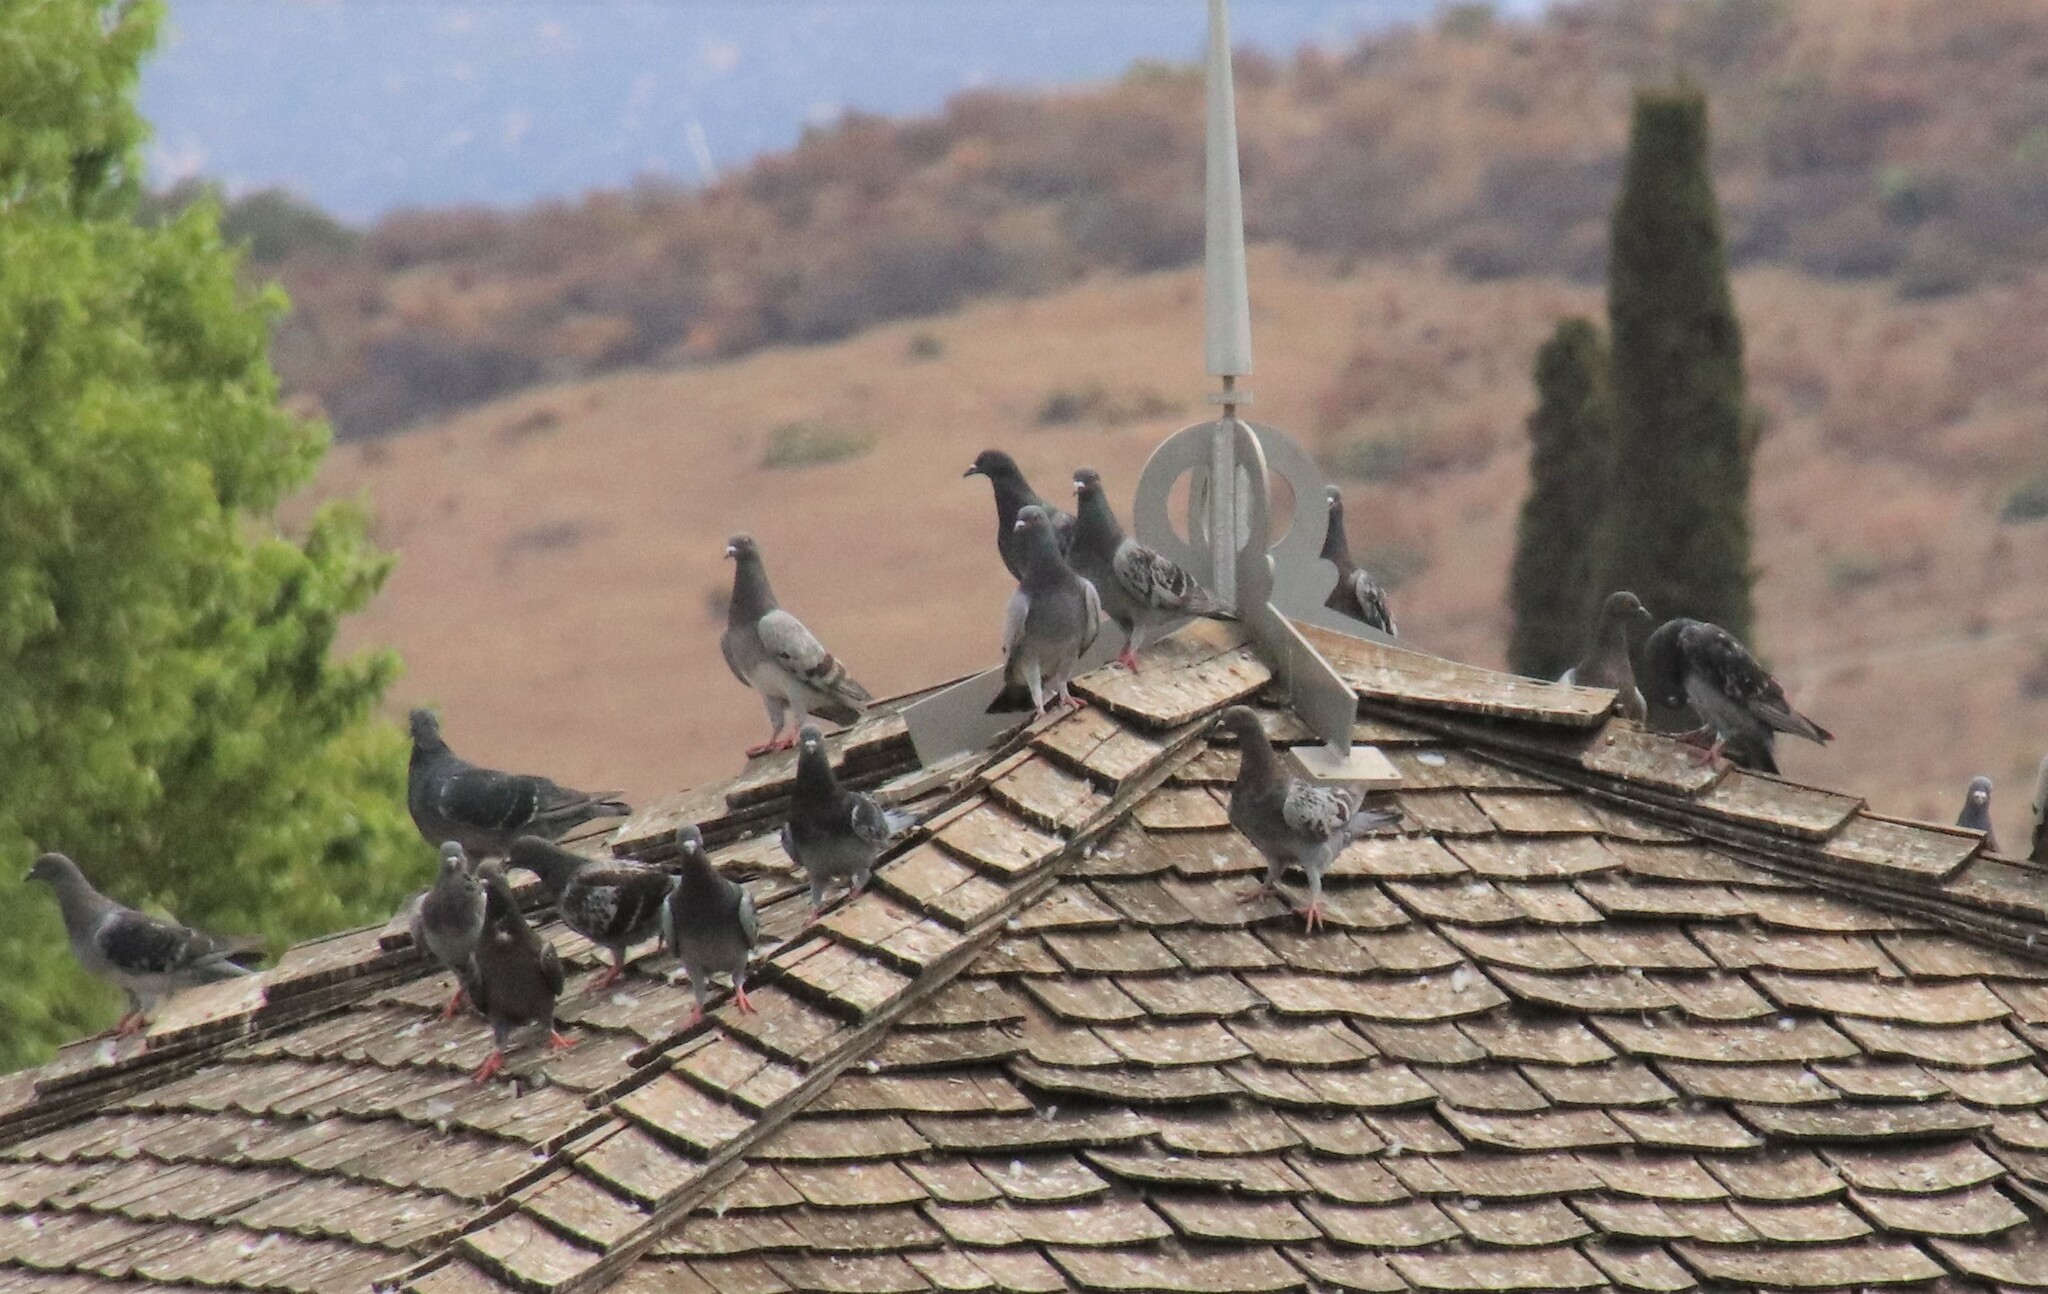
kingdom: Animalia
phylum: Chordata
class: Aves
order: Columbiformes
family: Columbidae
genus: Columba
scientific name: Columba livia
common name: Rock pigeon
